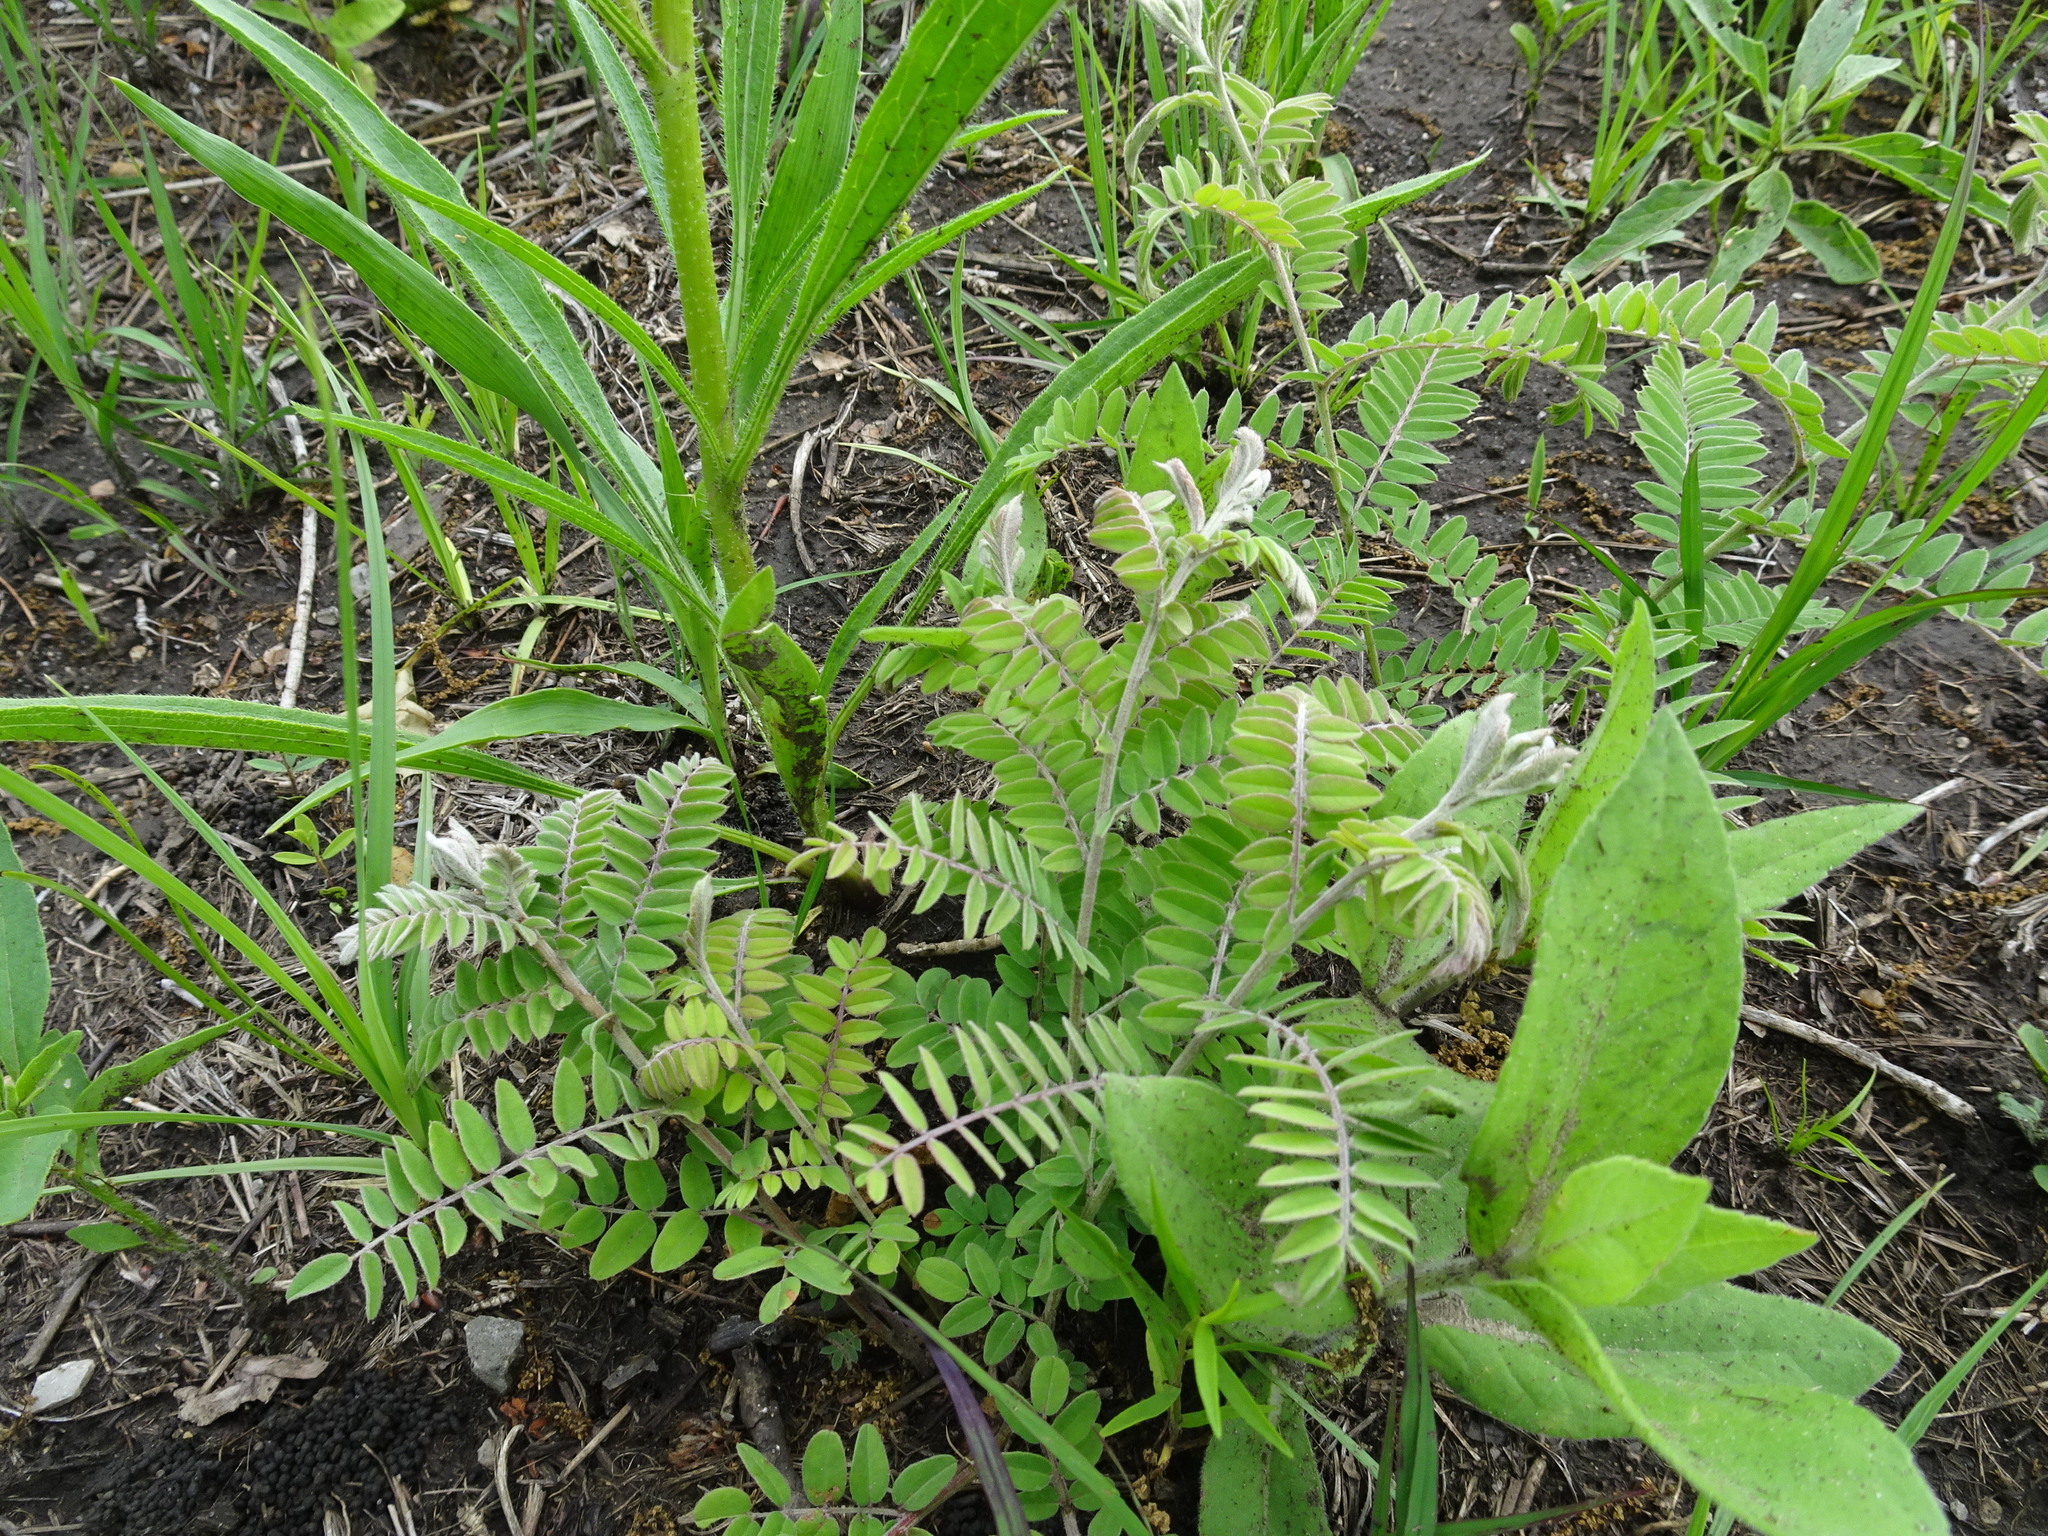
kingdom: Plantae
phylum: Tracheophyta
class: Magnoliopsida
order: Fabales
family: Fabaceae
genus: Amorpha
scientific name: Amorpha canescens
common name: Leadplant
